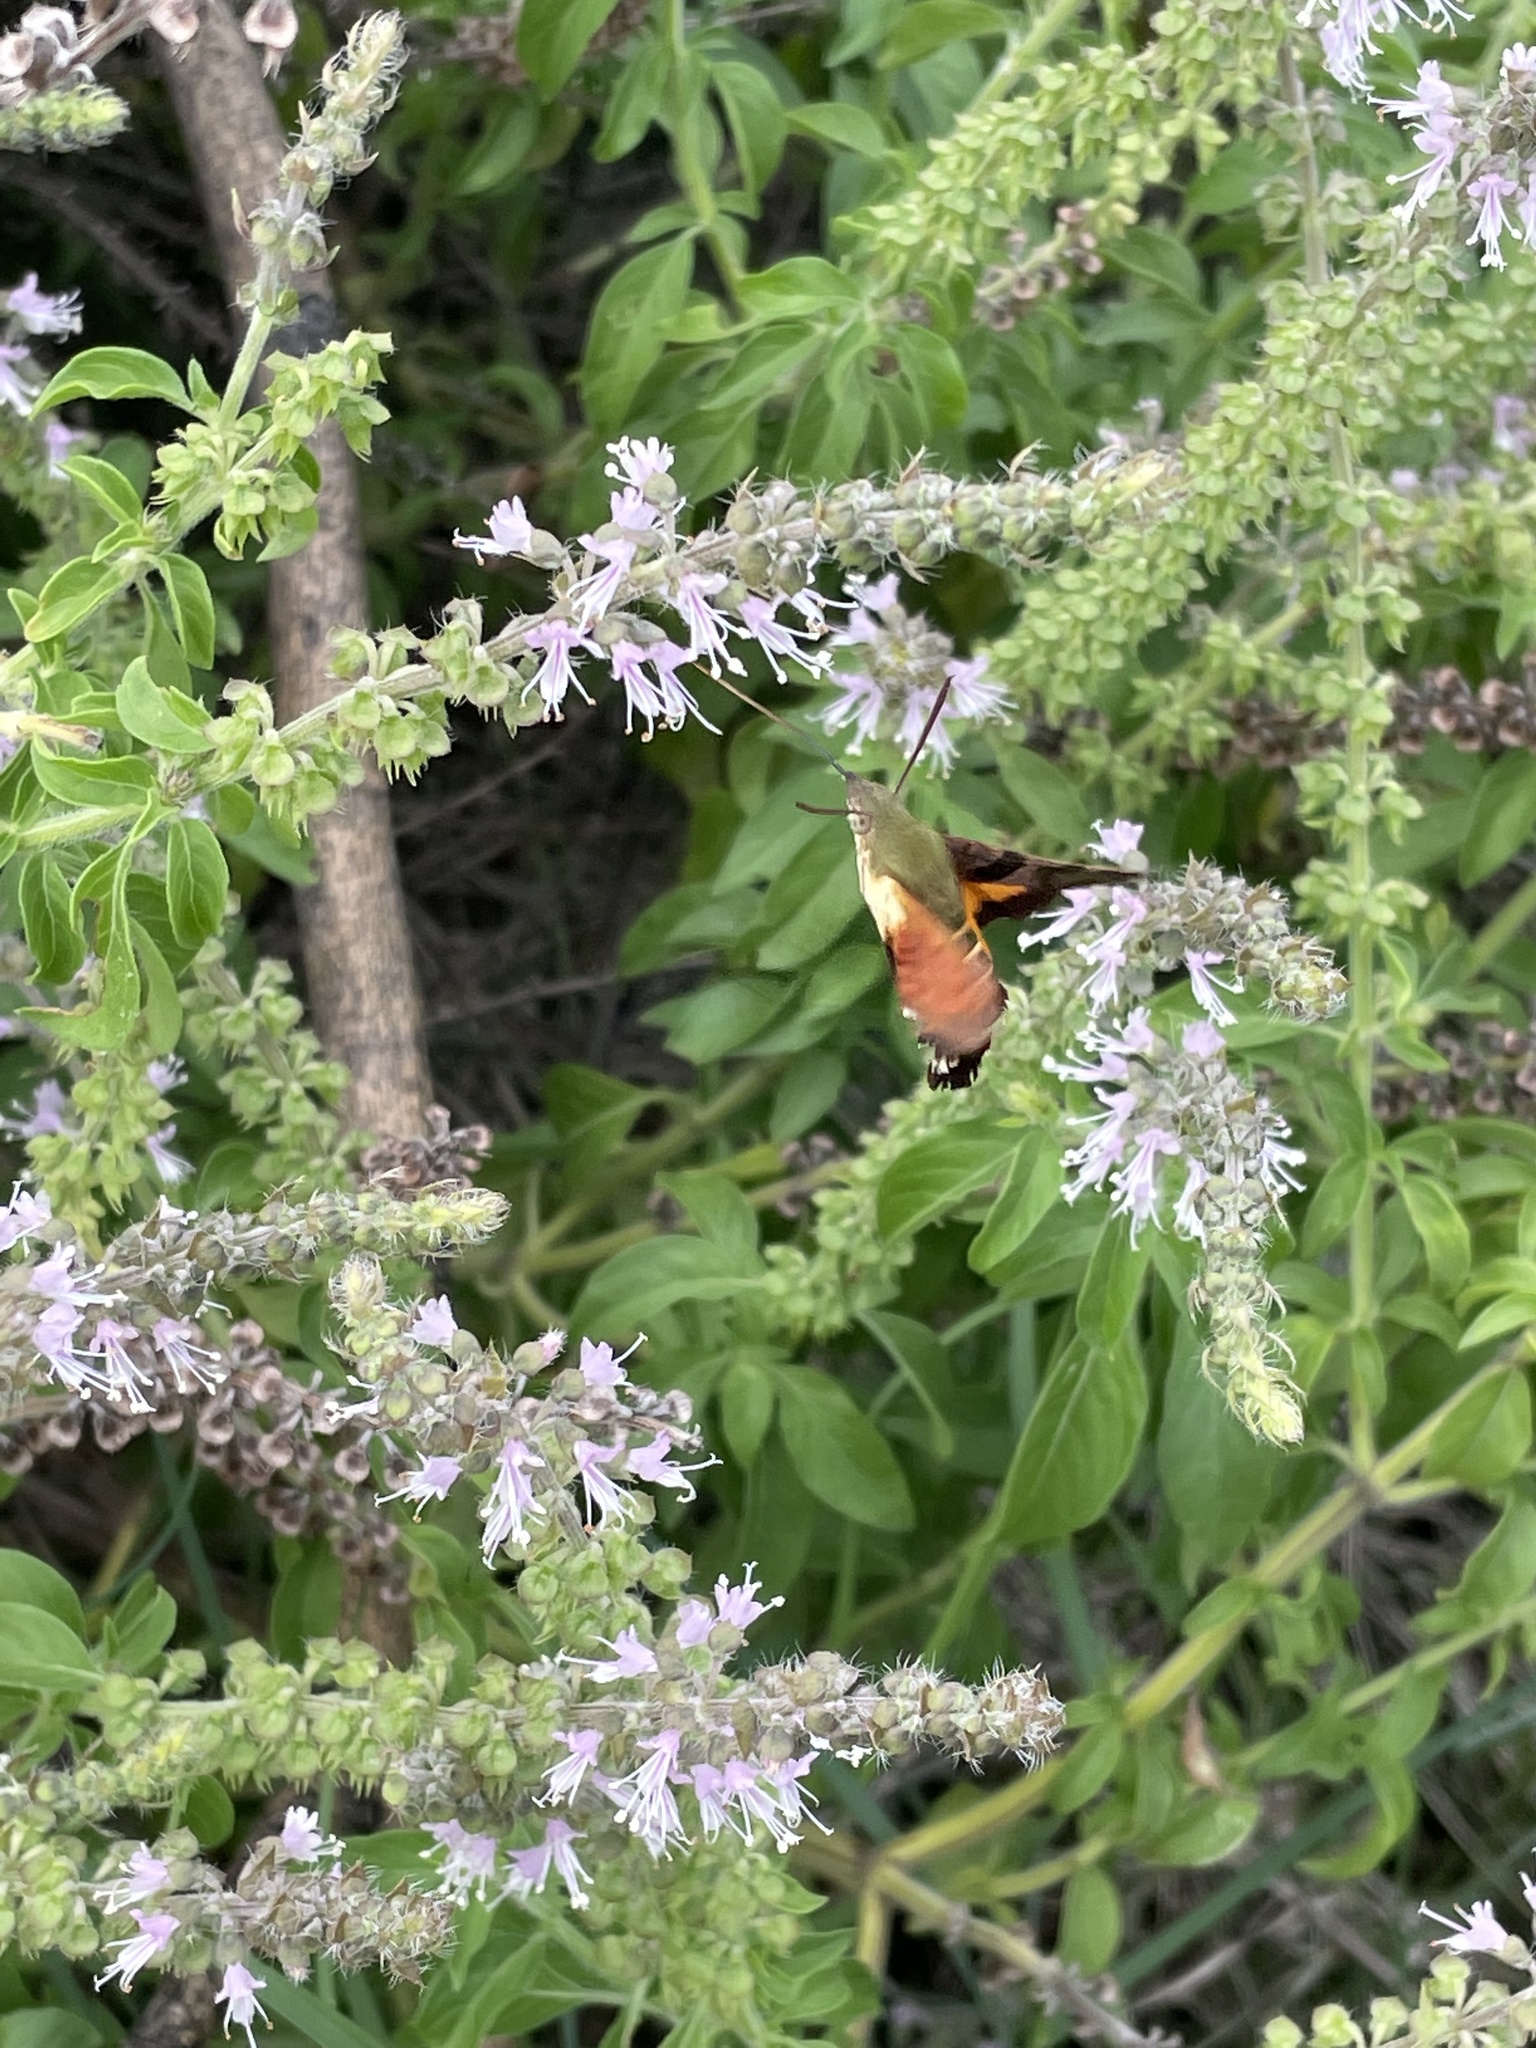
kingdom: Animalia
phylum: Arthropoda
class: Insecta
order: Lepidoptera
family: Sphingidae
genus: Macroglossum
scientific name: Macroglossum trochilus
